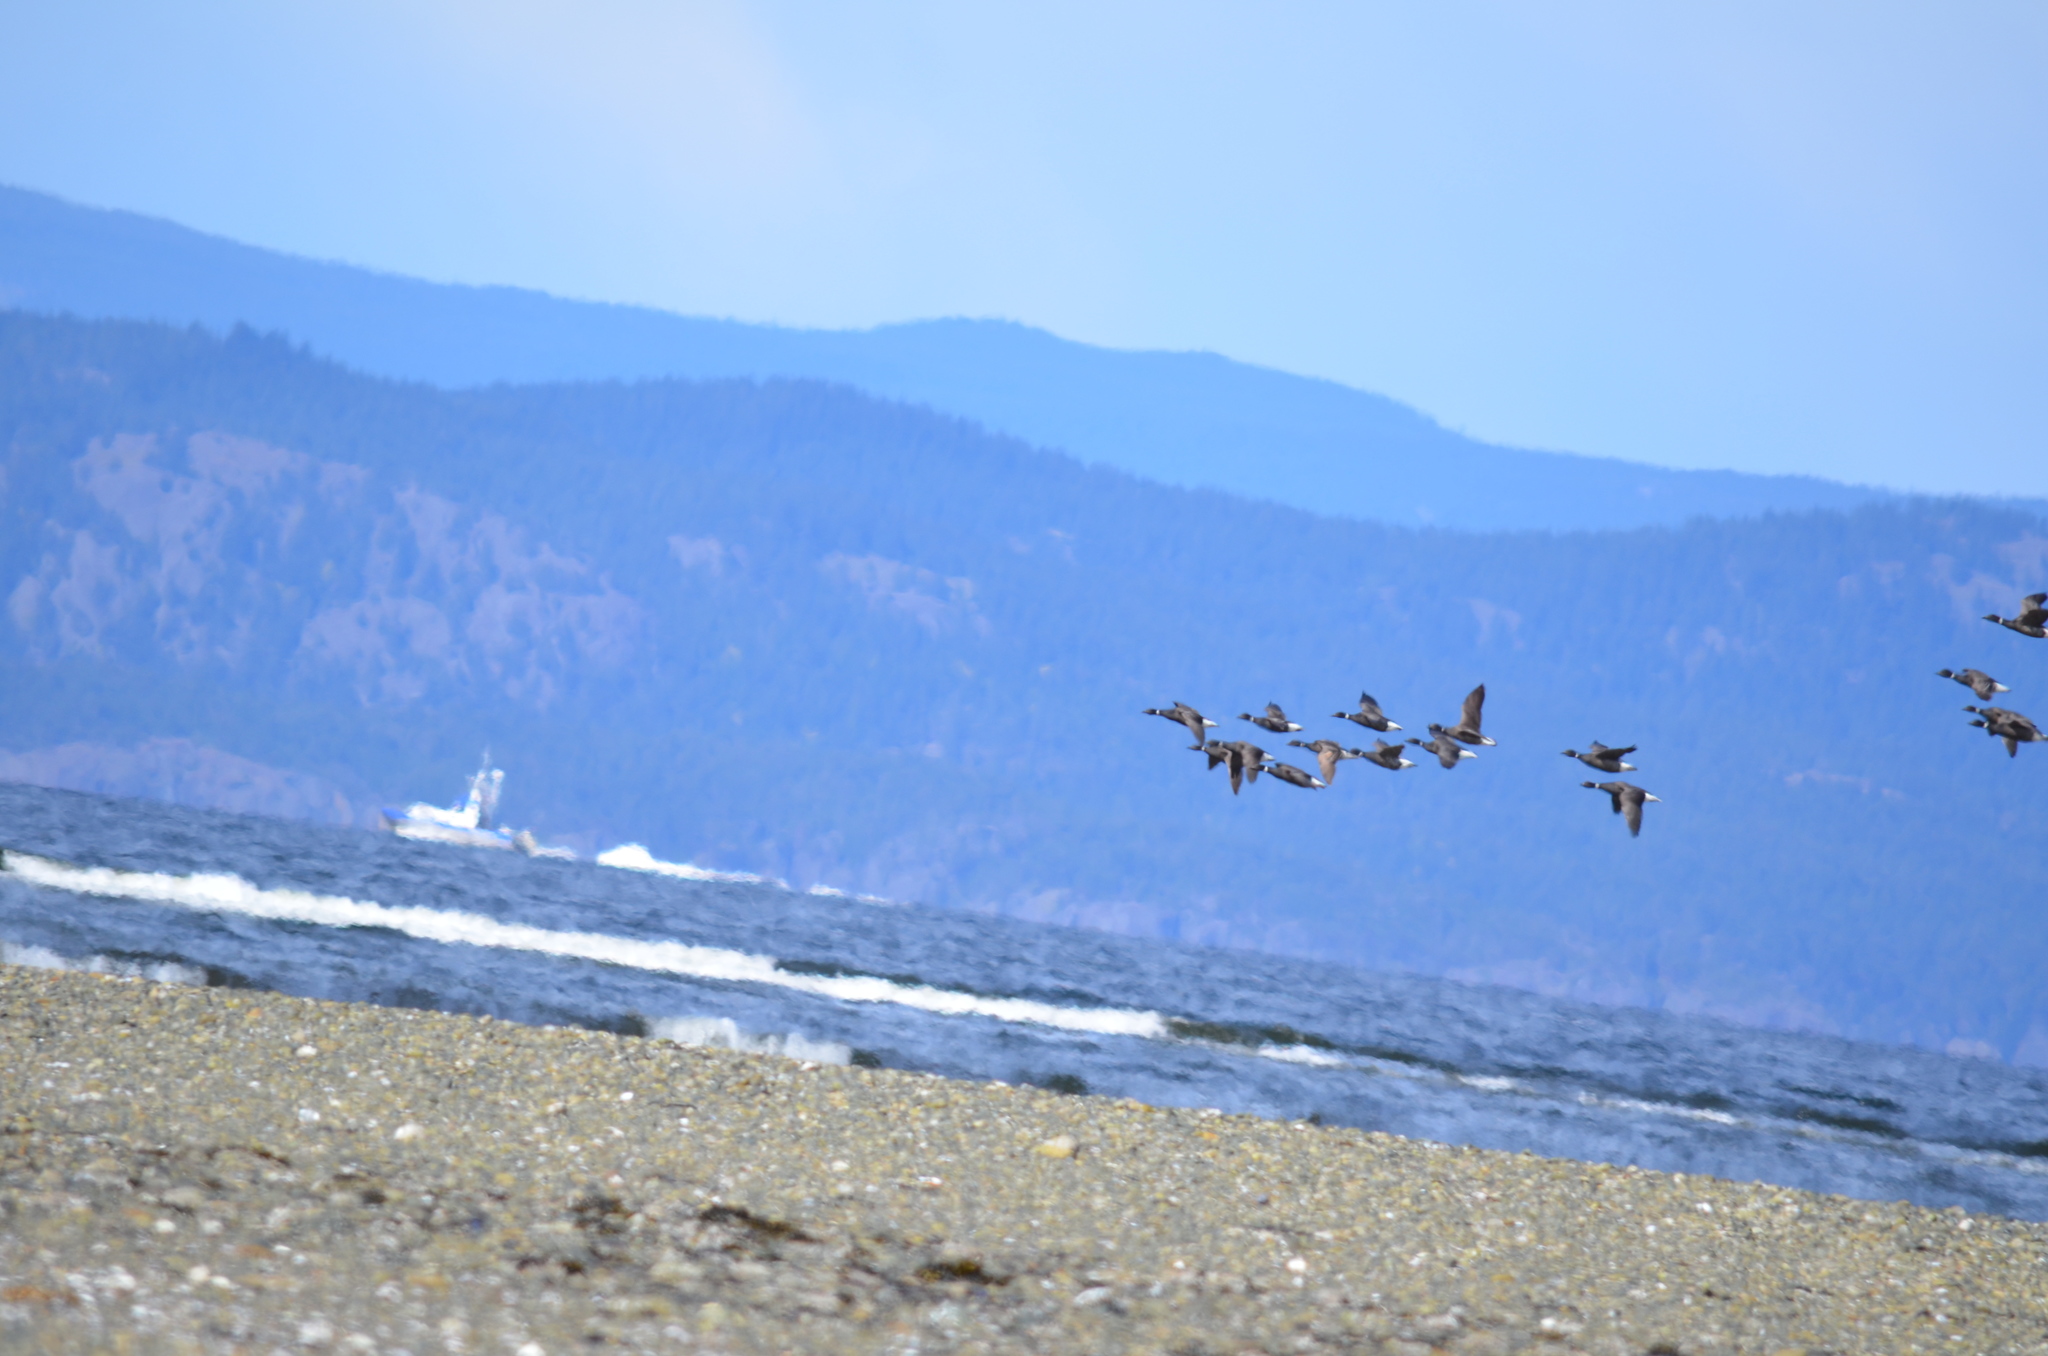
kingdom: Animalia
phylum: Chordata
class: Aves
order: Anseriformes
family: Anatidae
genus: Branta
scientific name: Branta bernicla
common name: Brant goose
